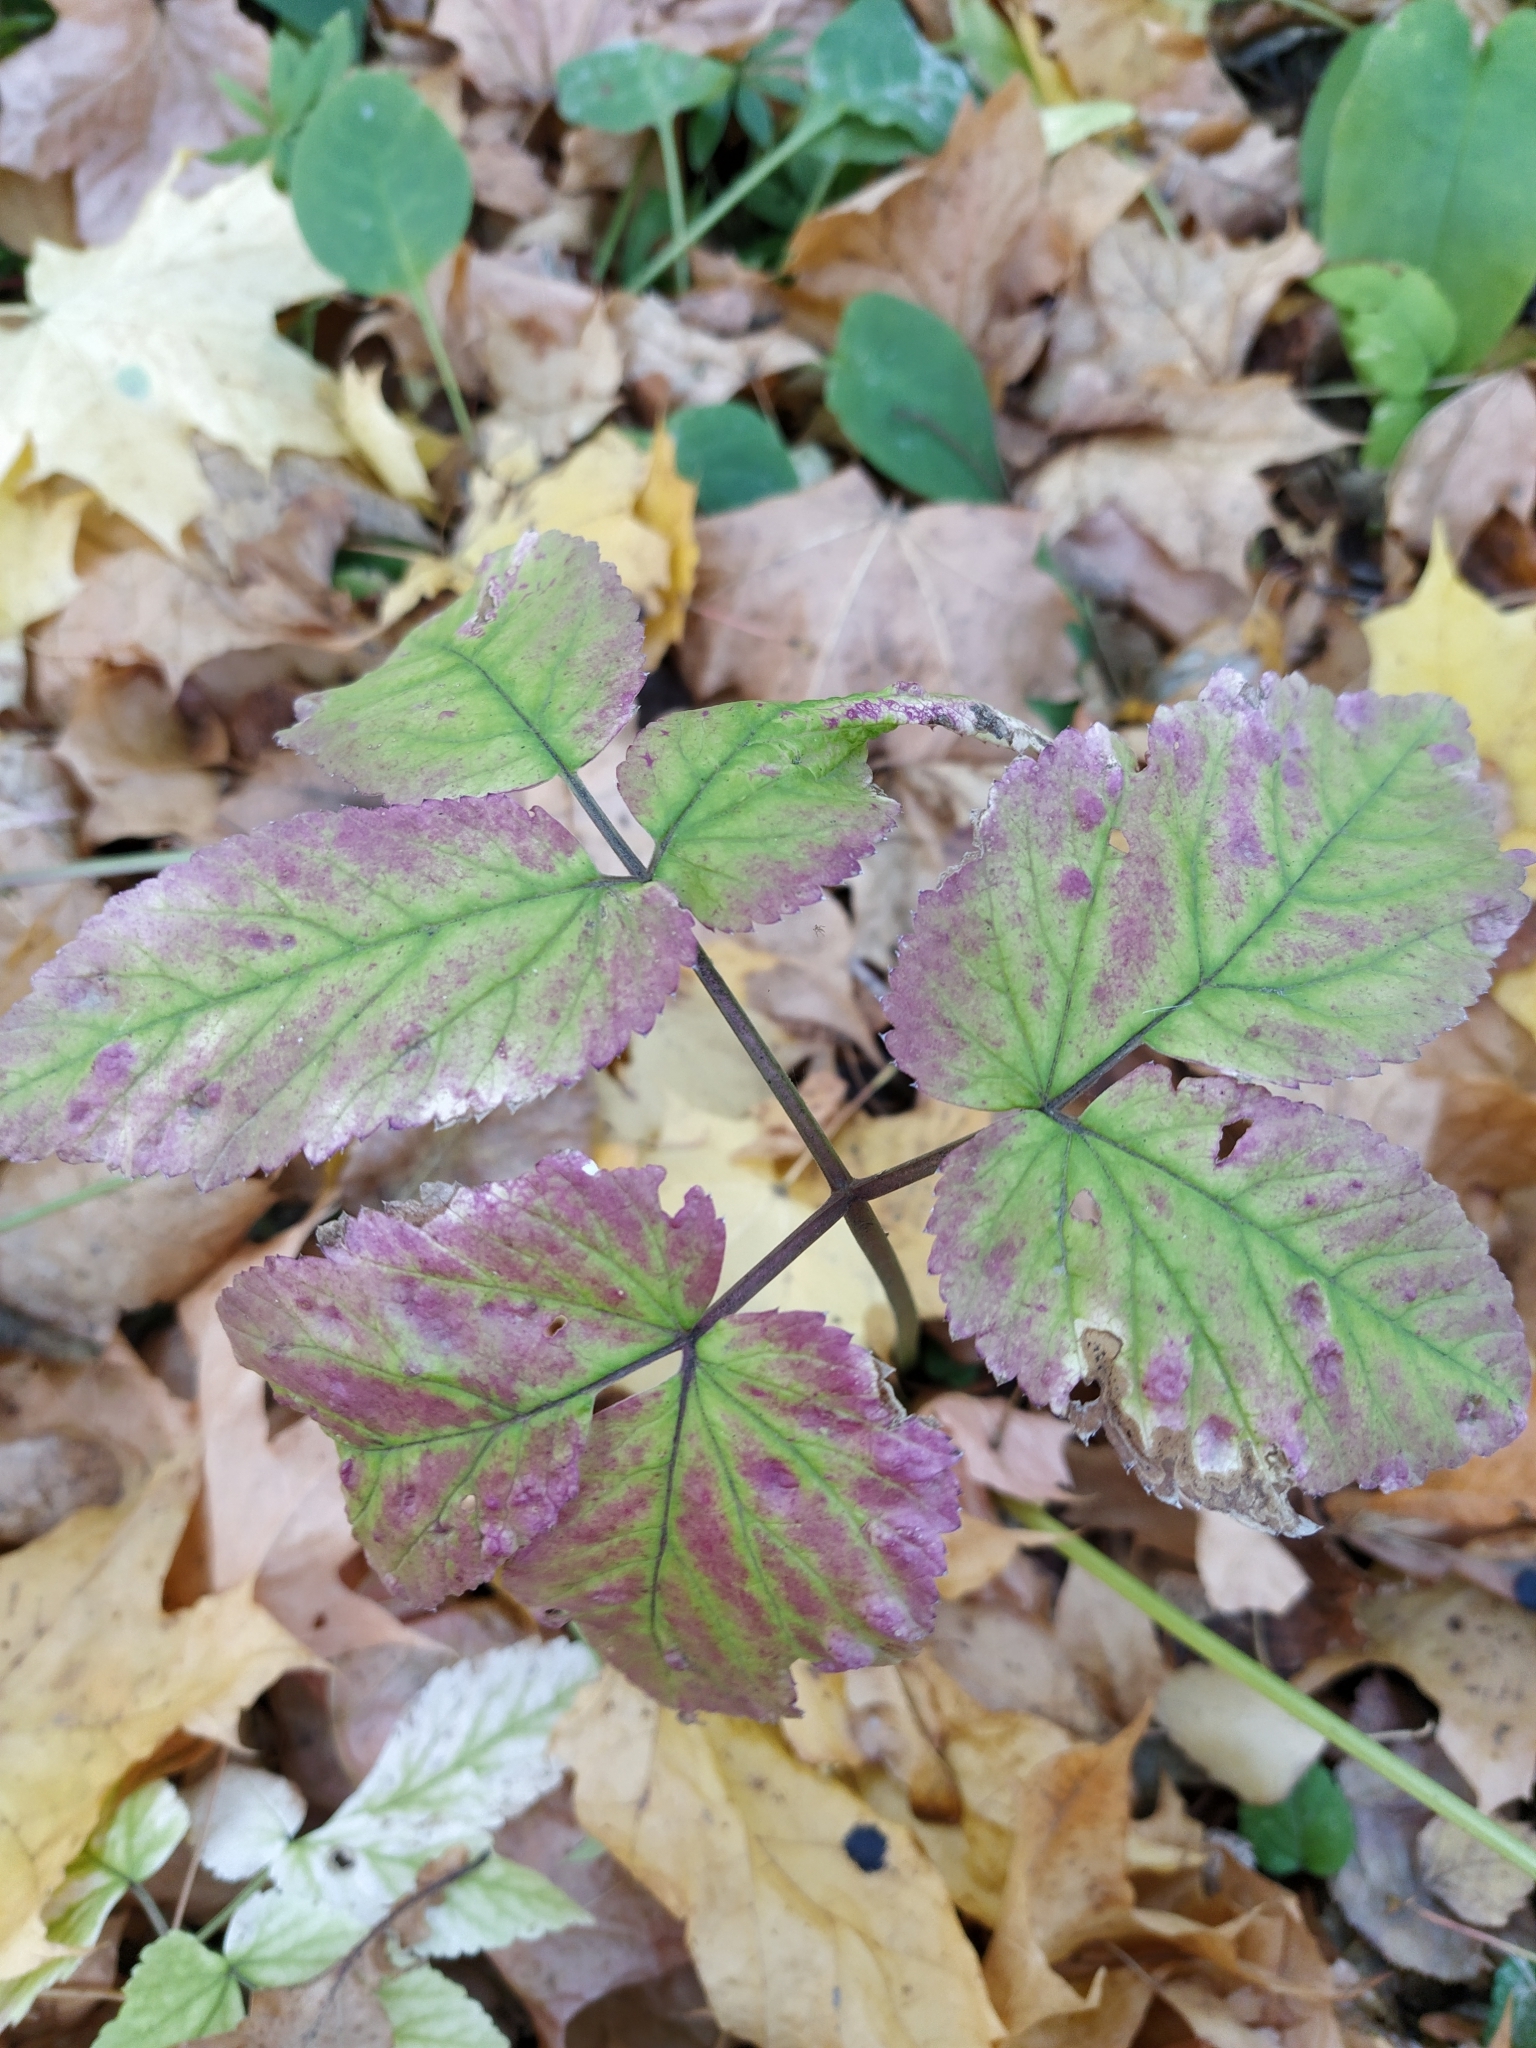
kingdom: Plantae
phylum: Tracheophyta
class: Magnoliopsida
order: Apiales
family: Apiaceae
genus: Aegopodium
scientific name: Aegopodium podagraria
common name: Ground-elder
